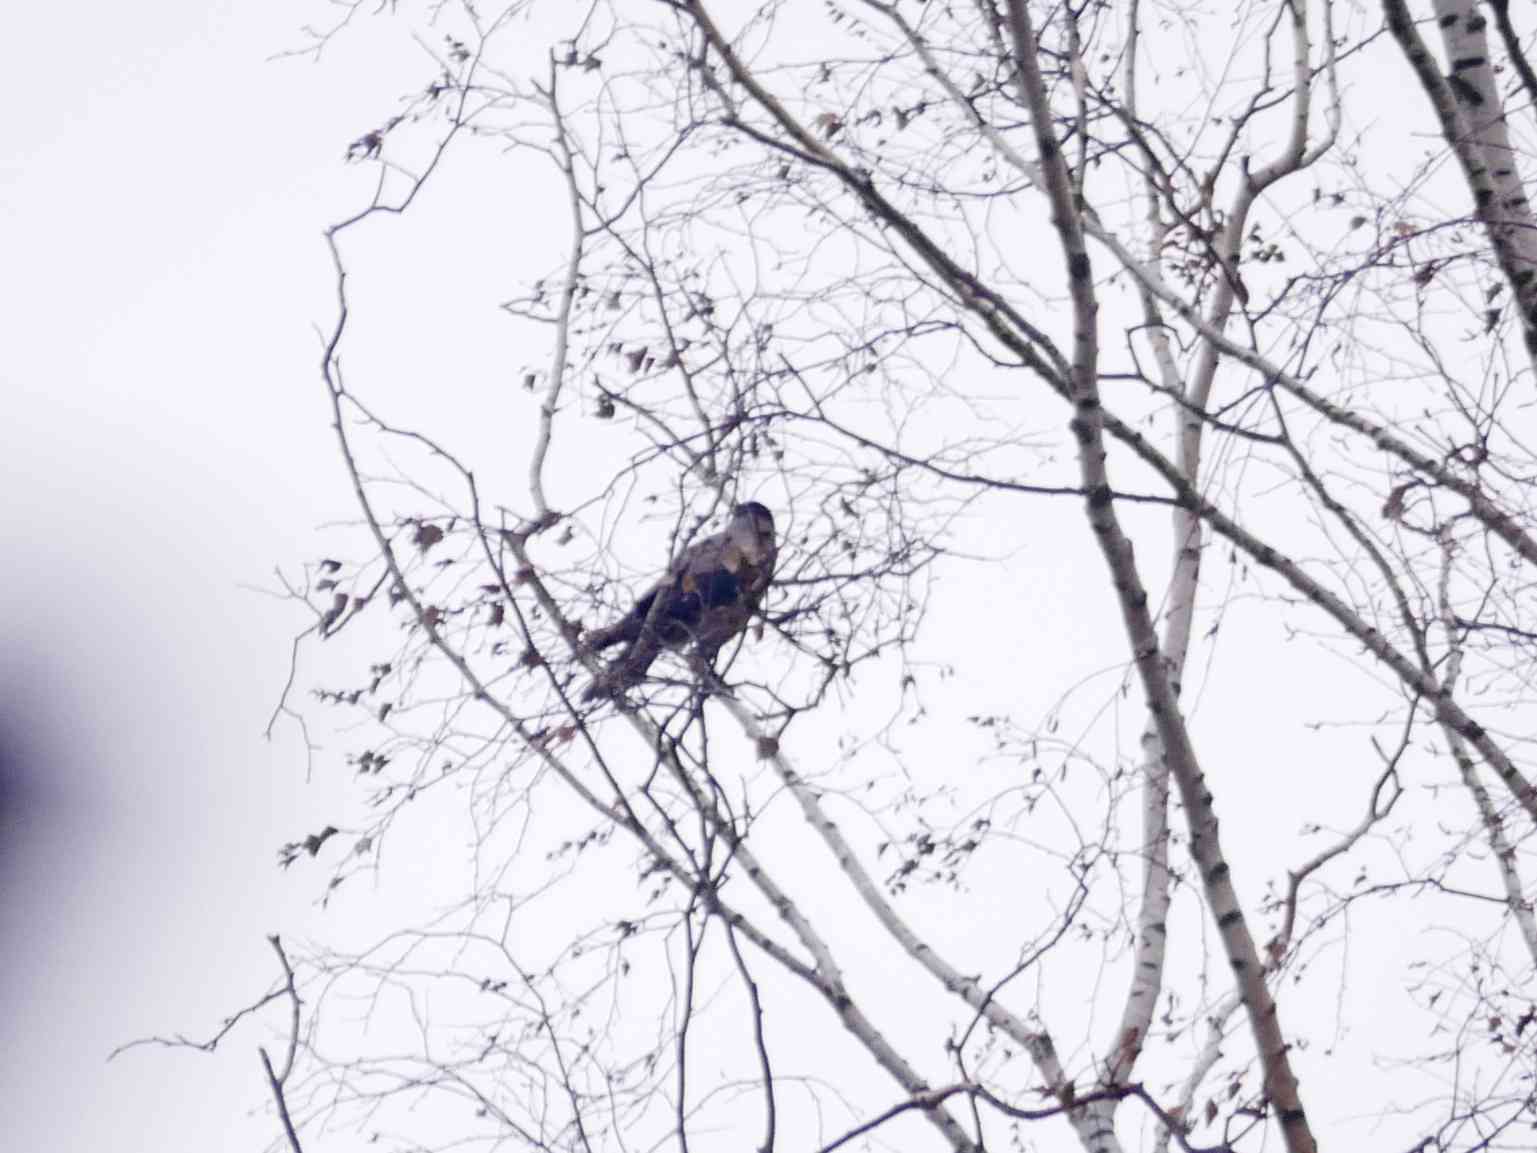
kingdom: Animalia
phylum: Chordata
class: Aves
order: Passeriformes
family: Corvidae
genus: Corvus
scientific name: Corvus cornix
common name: Hooded crow
